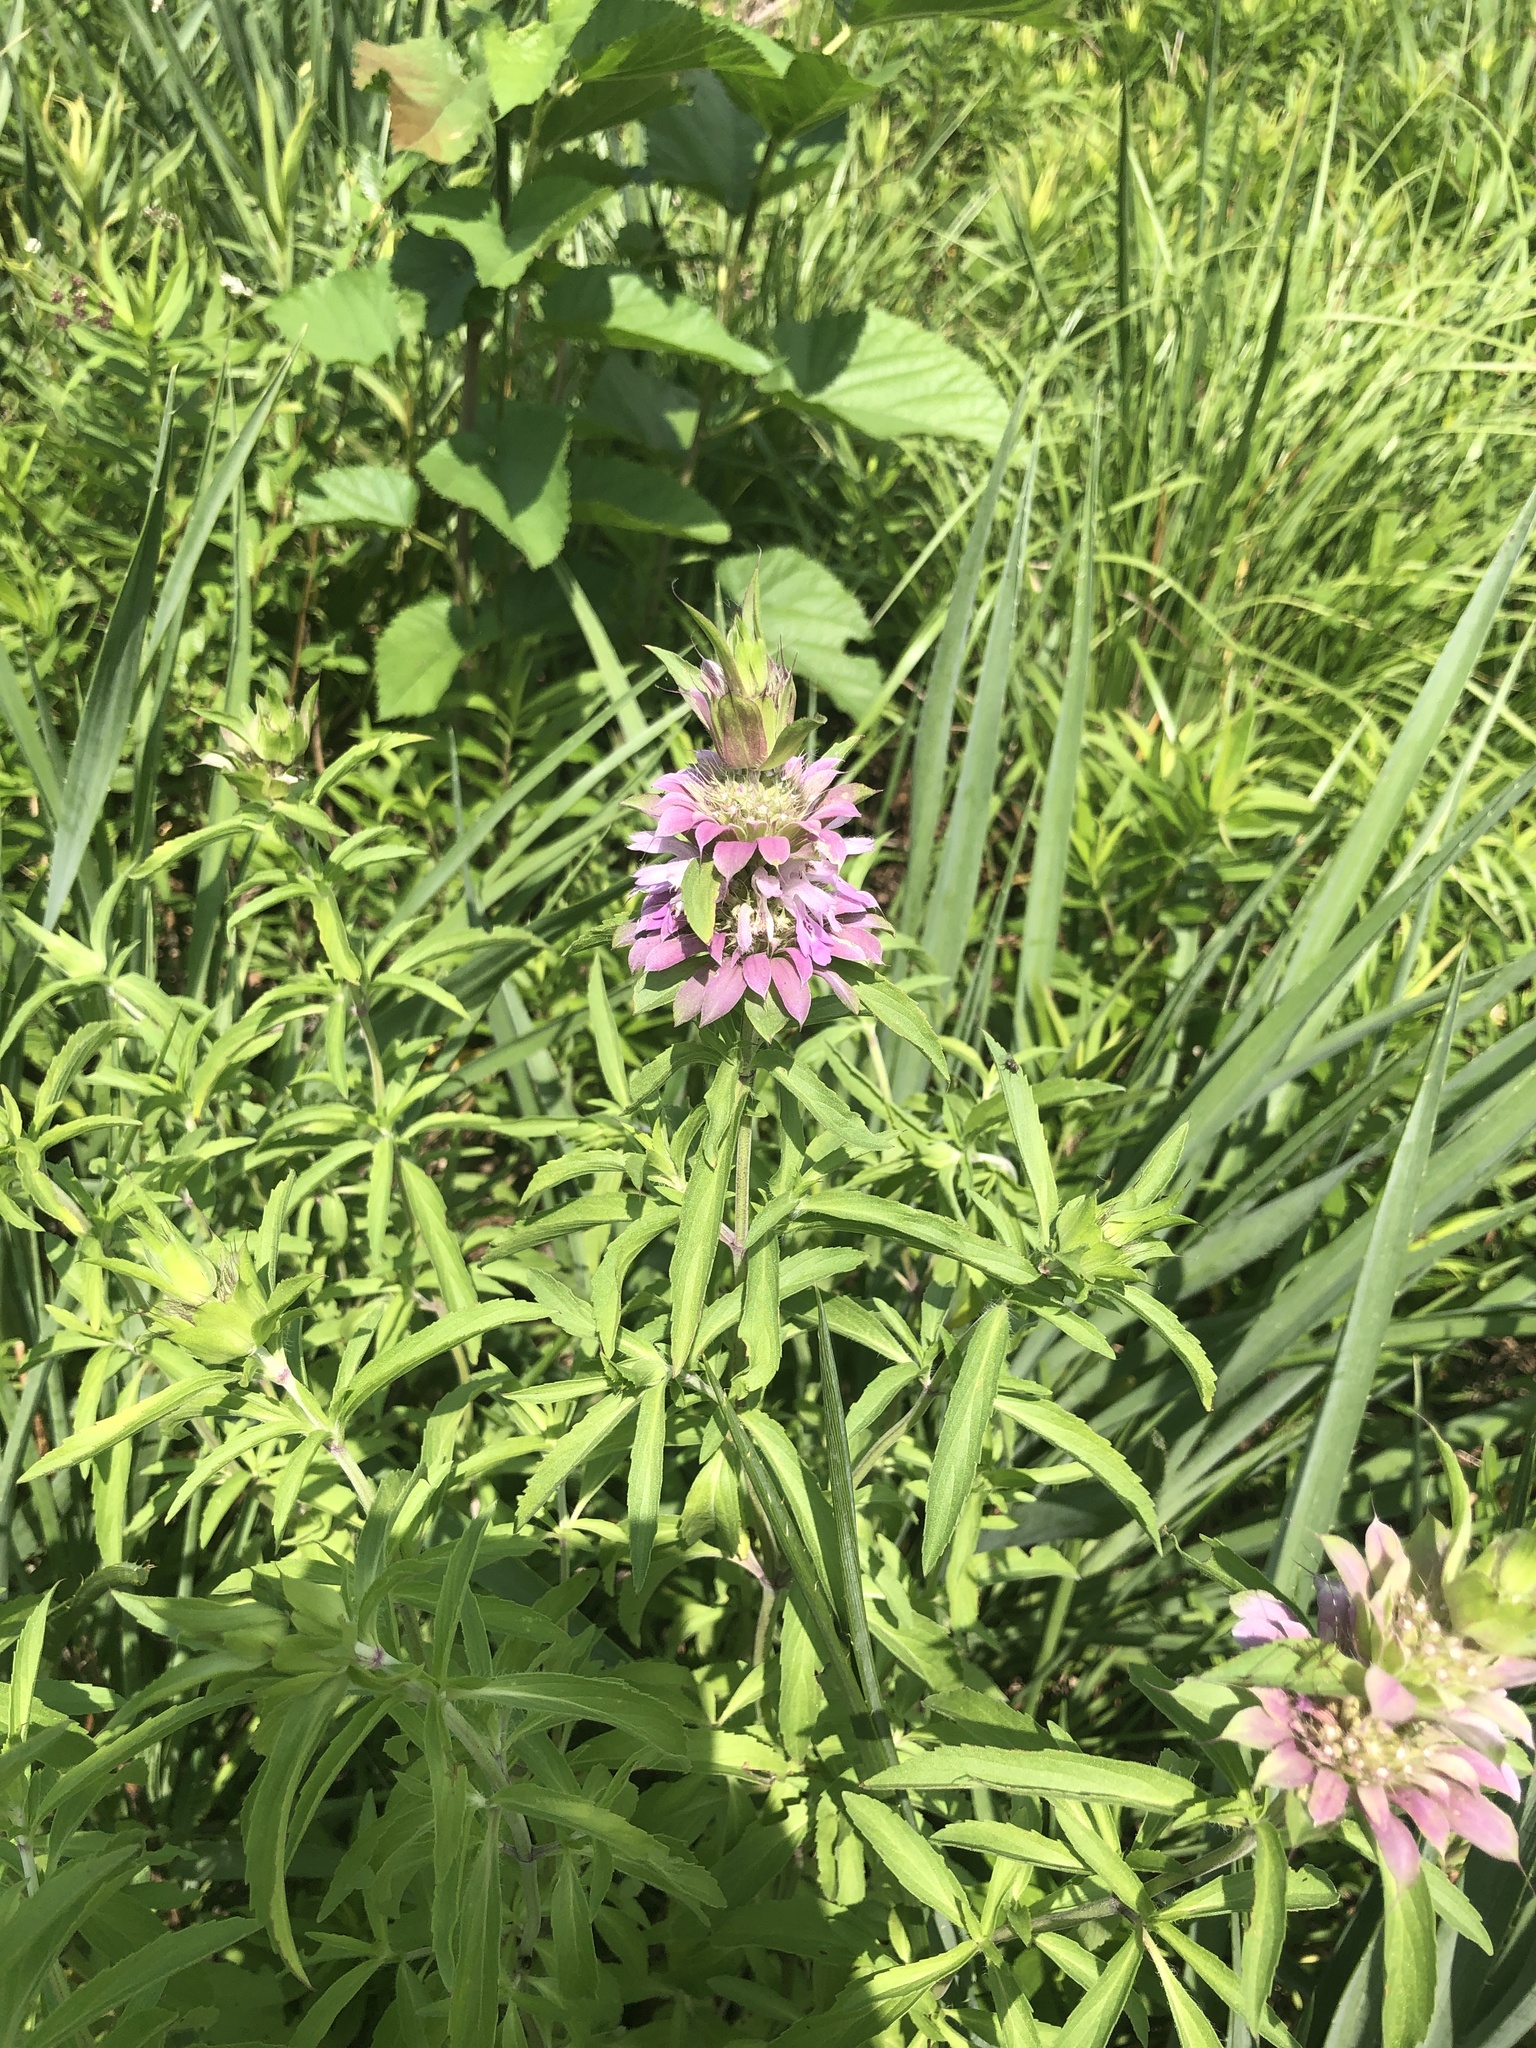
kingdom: Plantae
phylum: Tracheophyta
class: Magnoliopsida
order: Lamiales
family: Lamiaceae
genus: Monarda
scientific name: Monarda citriodora
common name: Lemon beebalm
